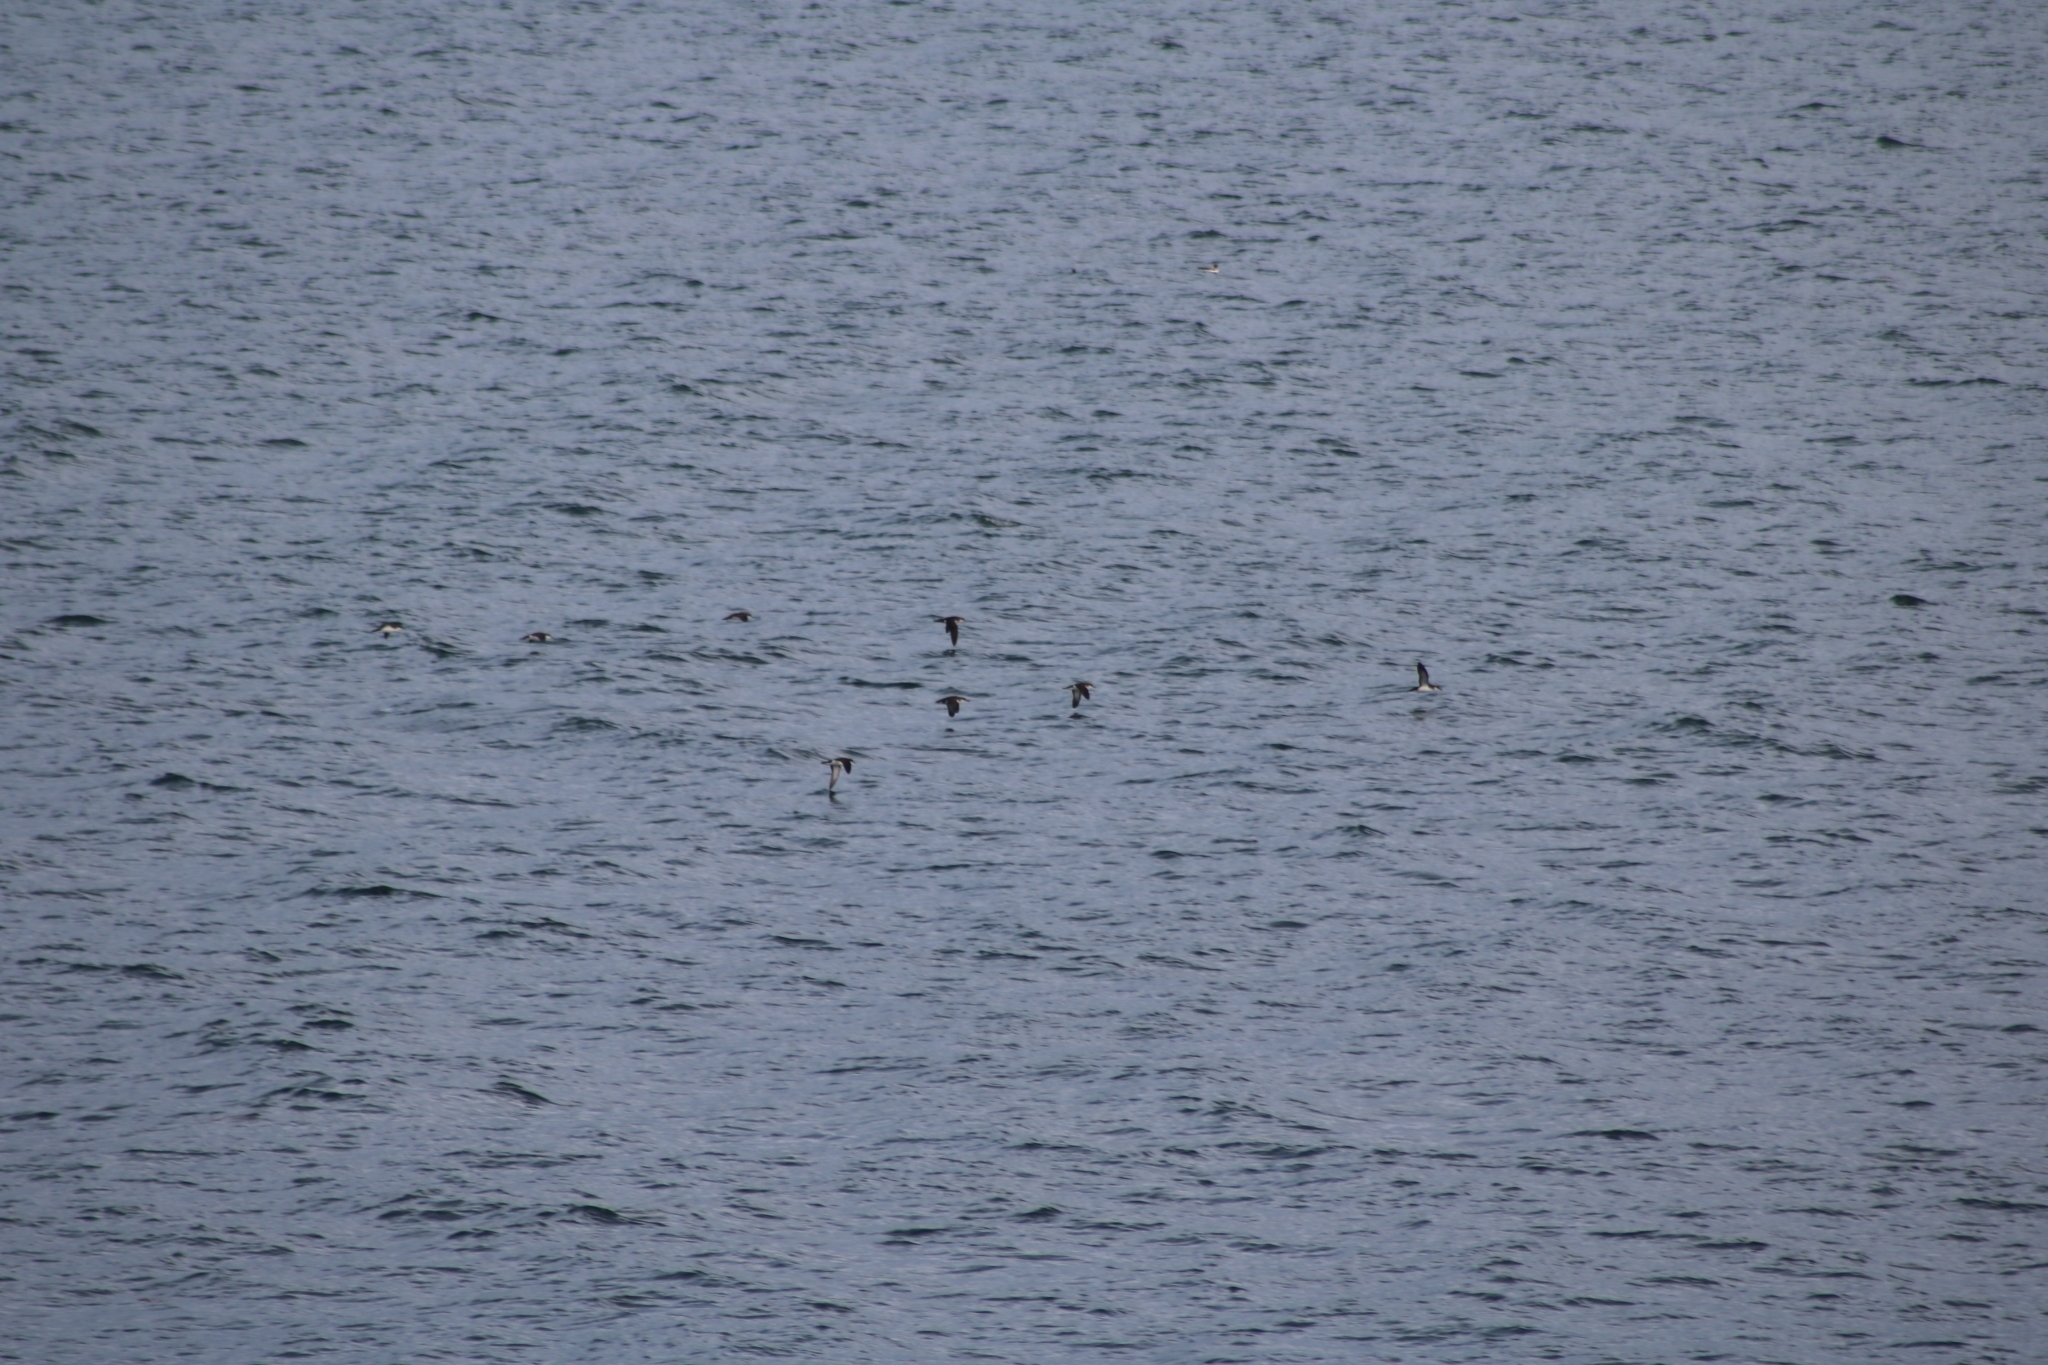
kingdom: Animalia
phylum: Chordata
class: Aves
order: Procellariiformes
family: Procellariidae
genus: Puffinus
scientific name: Puffinus puffinus
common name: Manx shearwater
